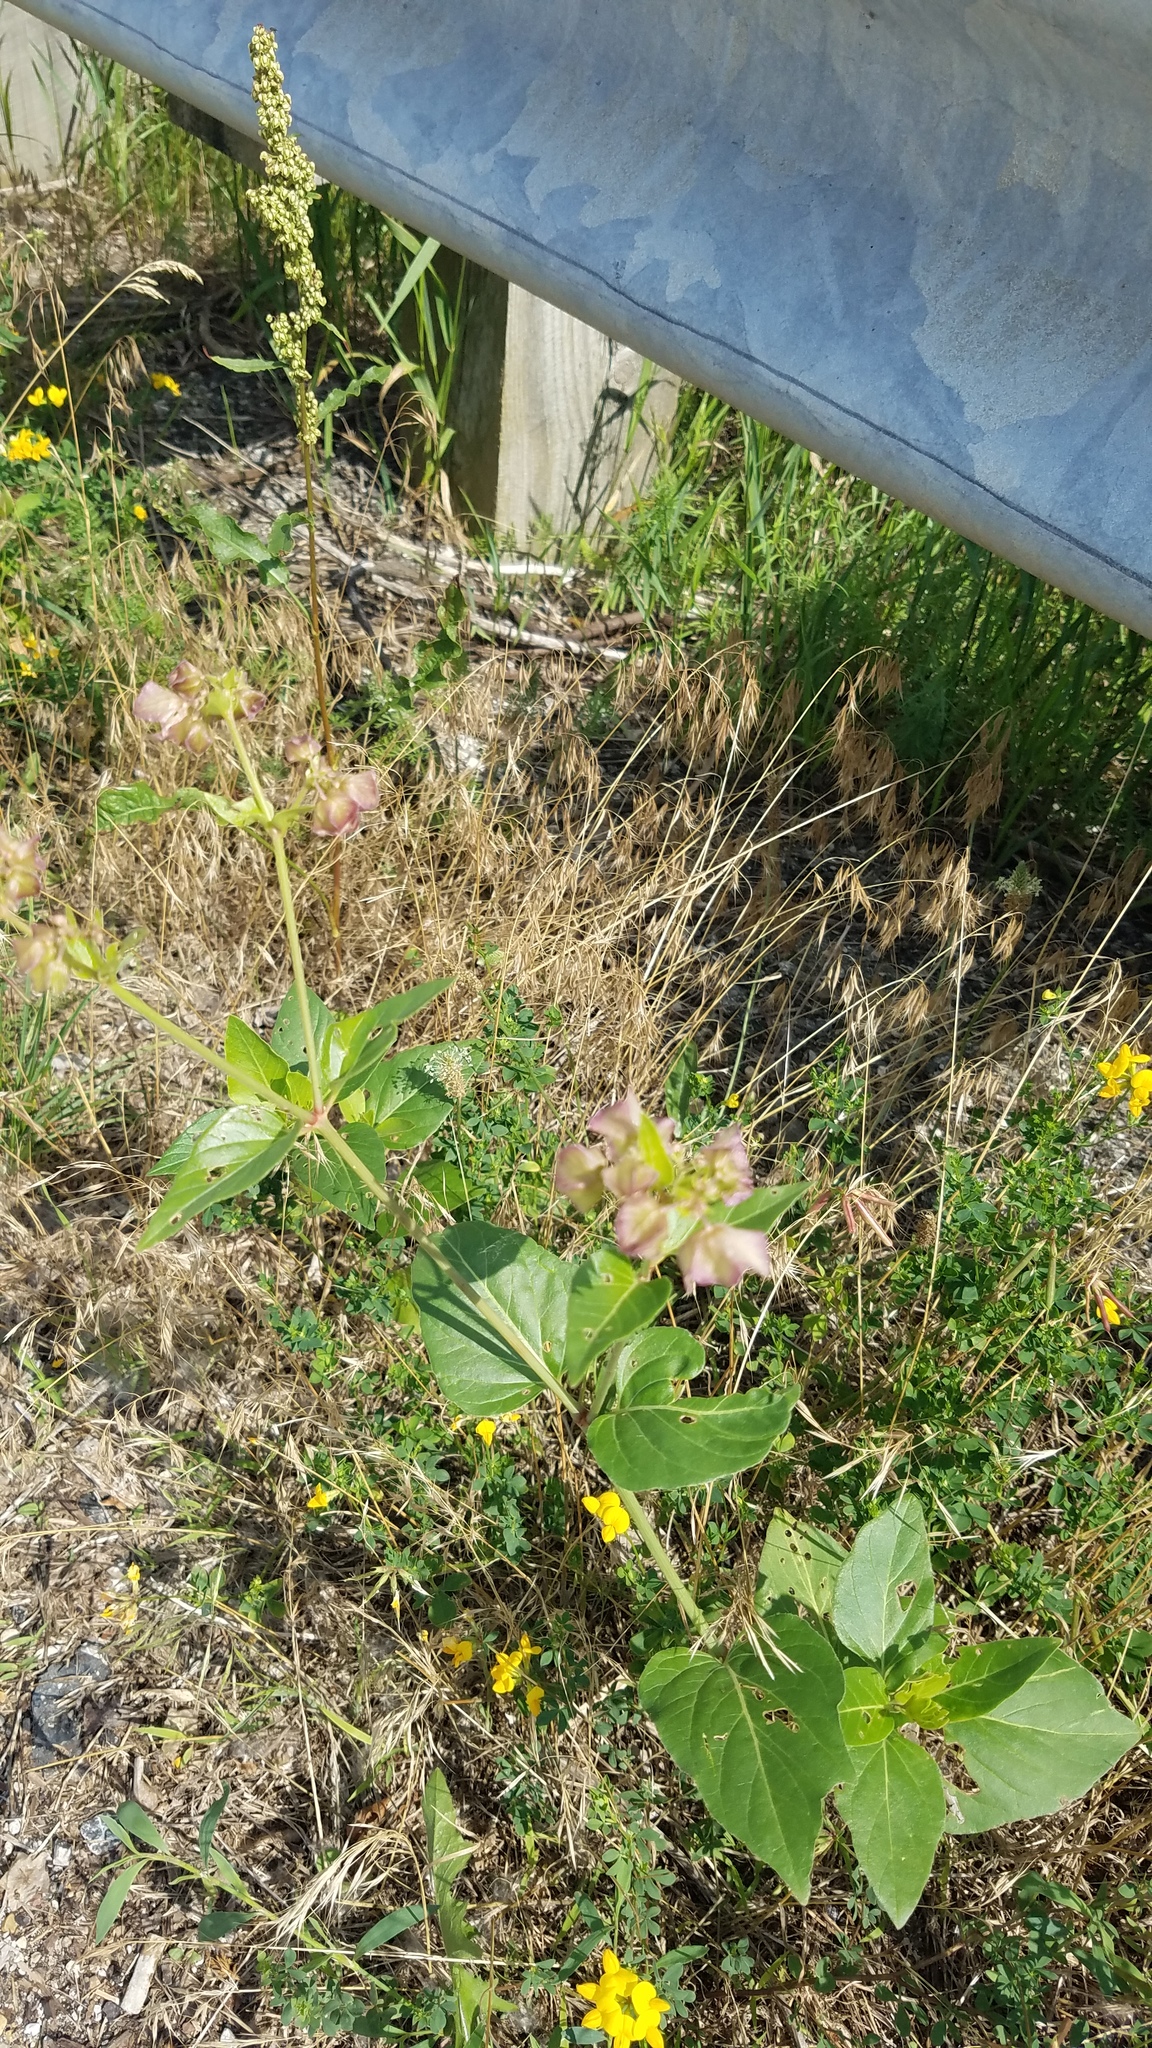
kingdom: Plantae
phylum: Tracheophyta
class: Magnoliopsida
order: Caryophyllales
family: Nyctaginaceae
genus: Mirabilis
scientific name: Mirabilis nyctaginea
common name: Umbrella wort
